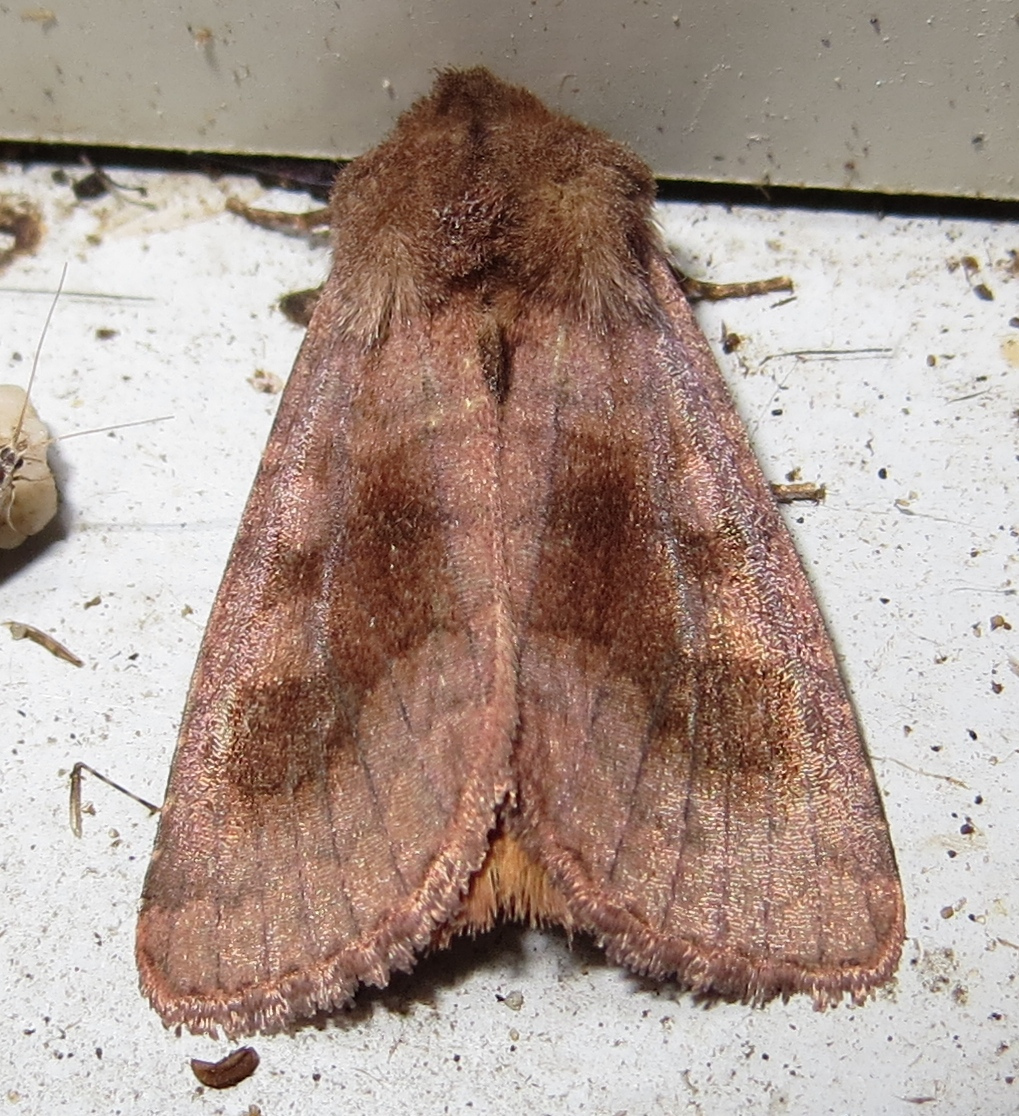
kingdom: Animalia
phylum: Arthropoda
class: Insecta
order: Lepidoptera
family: Noctuidae
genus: Nephelodes
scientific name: Nephelodes minians
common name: Bronzed cutworm
